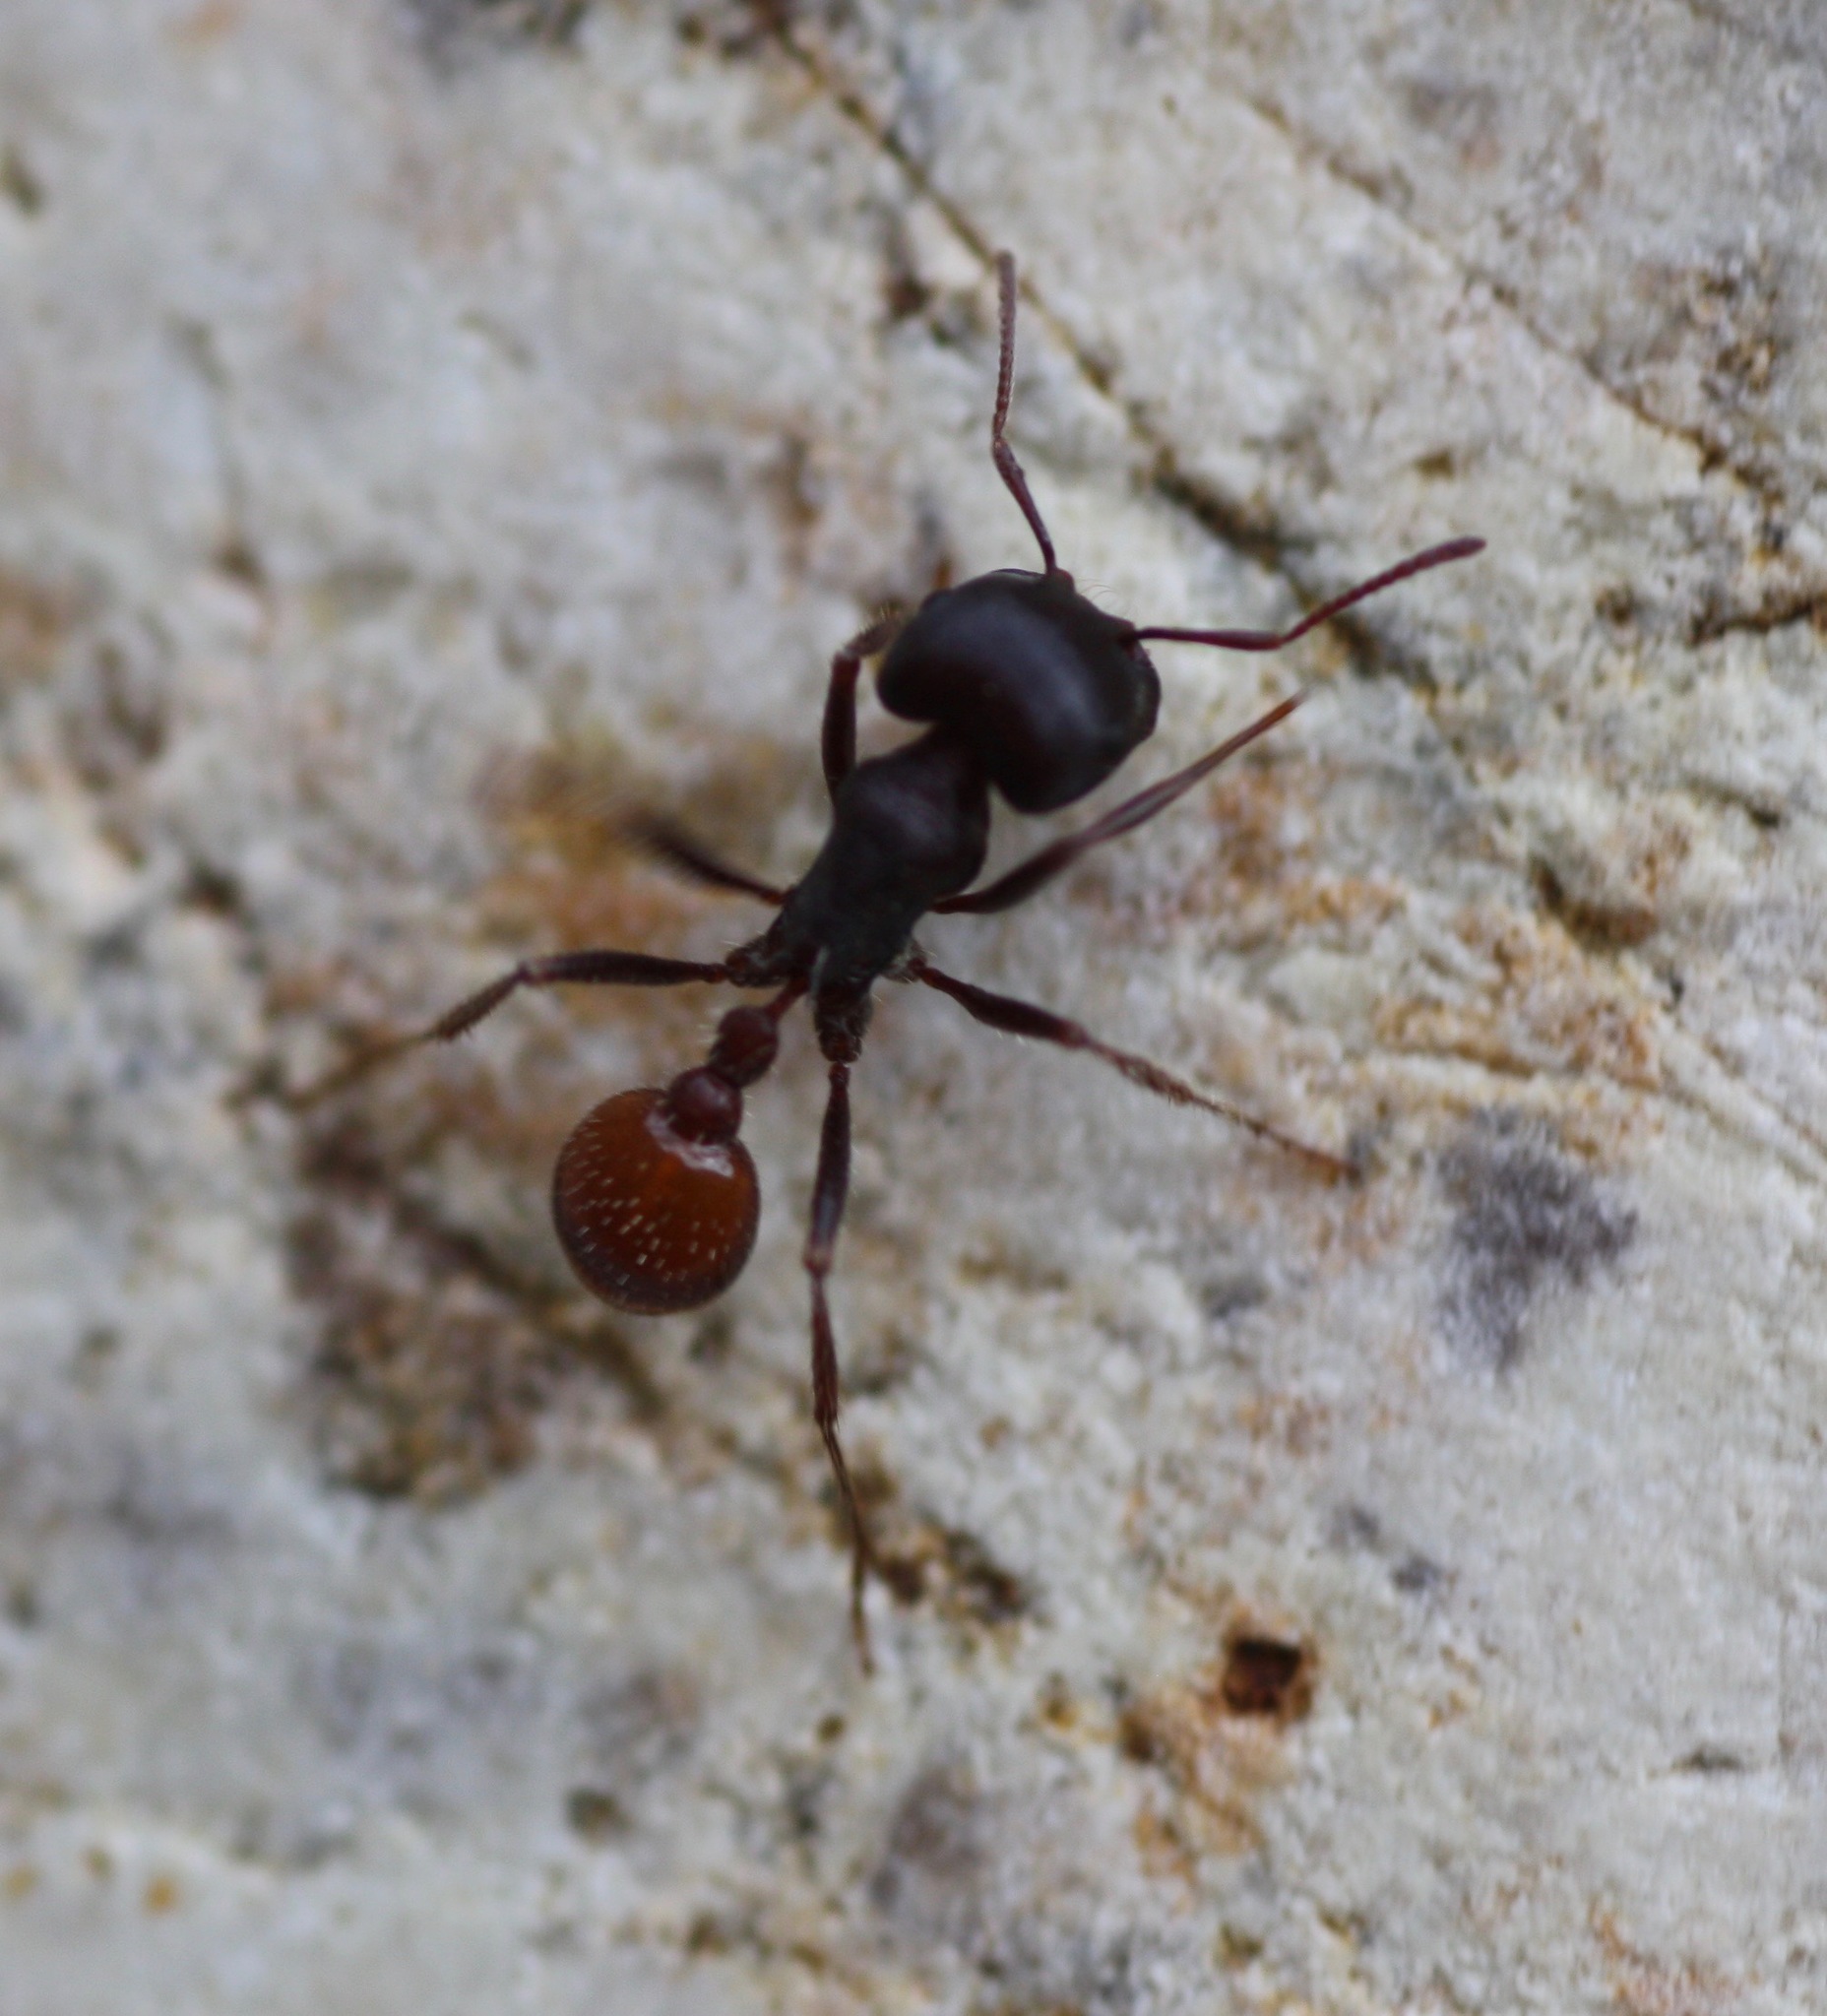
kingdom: Animalia
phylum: Arthropoda
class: Insecta
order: Hymenoptera
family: Formicidae
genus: Pogonomyrmex
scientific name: Pogonomyrmex rugosus
